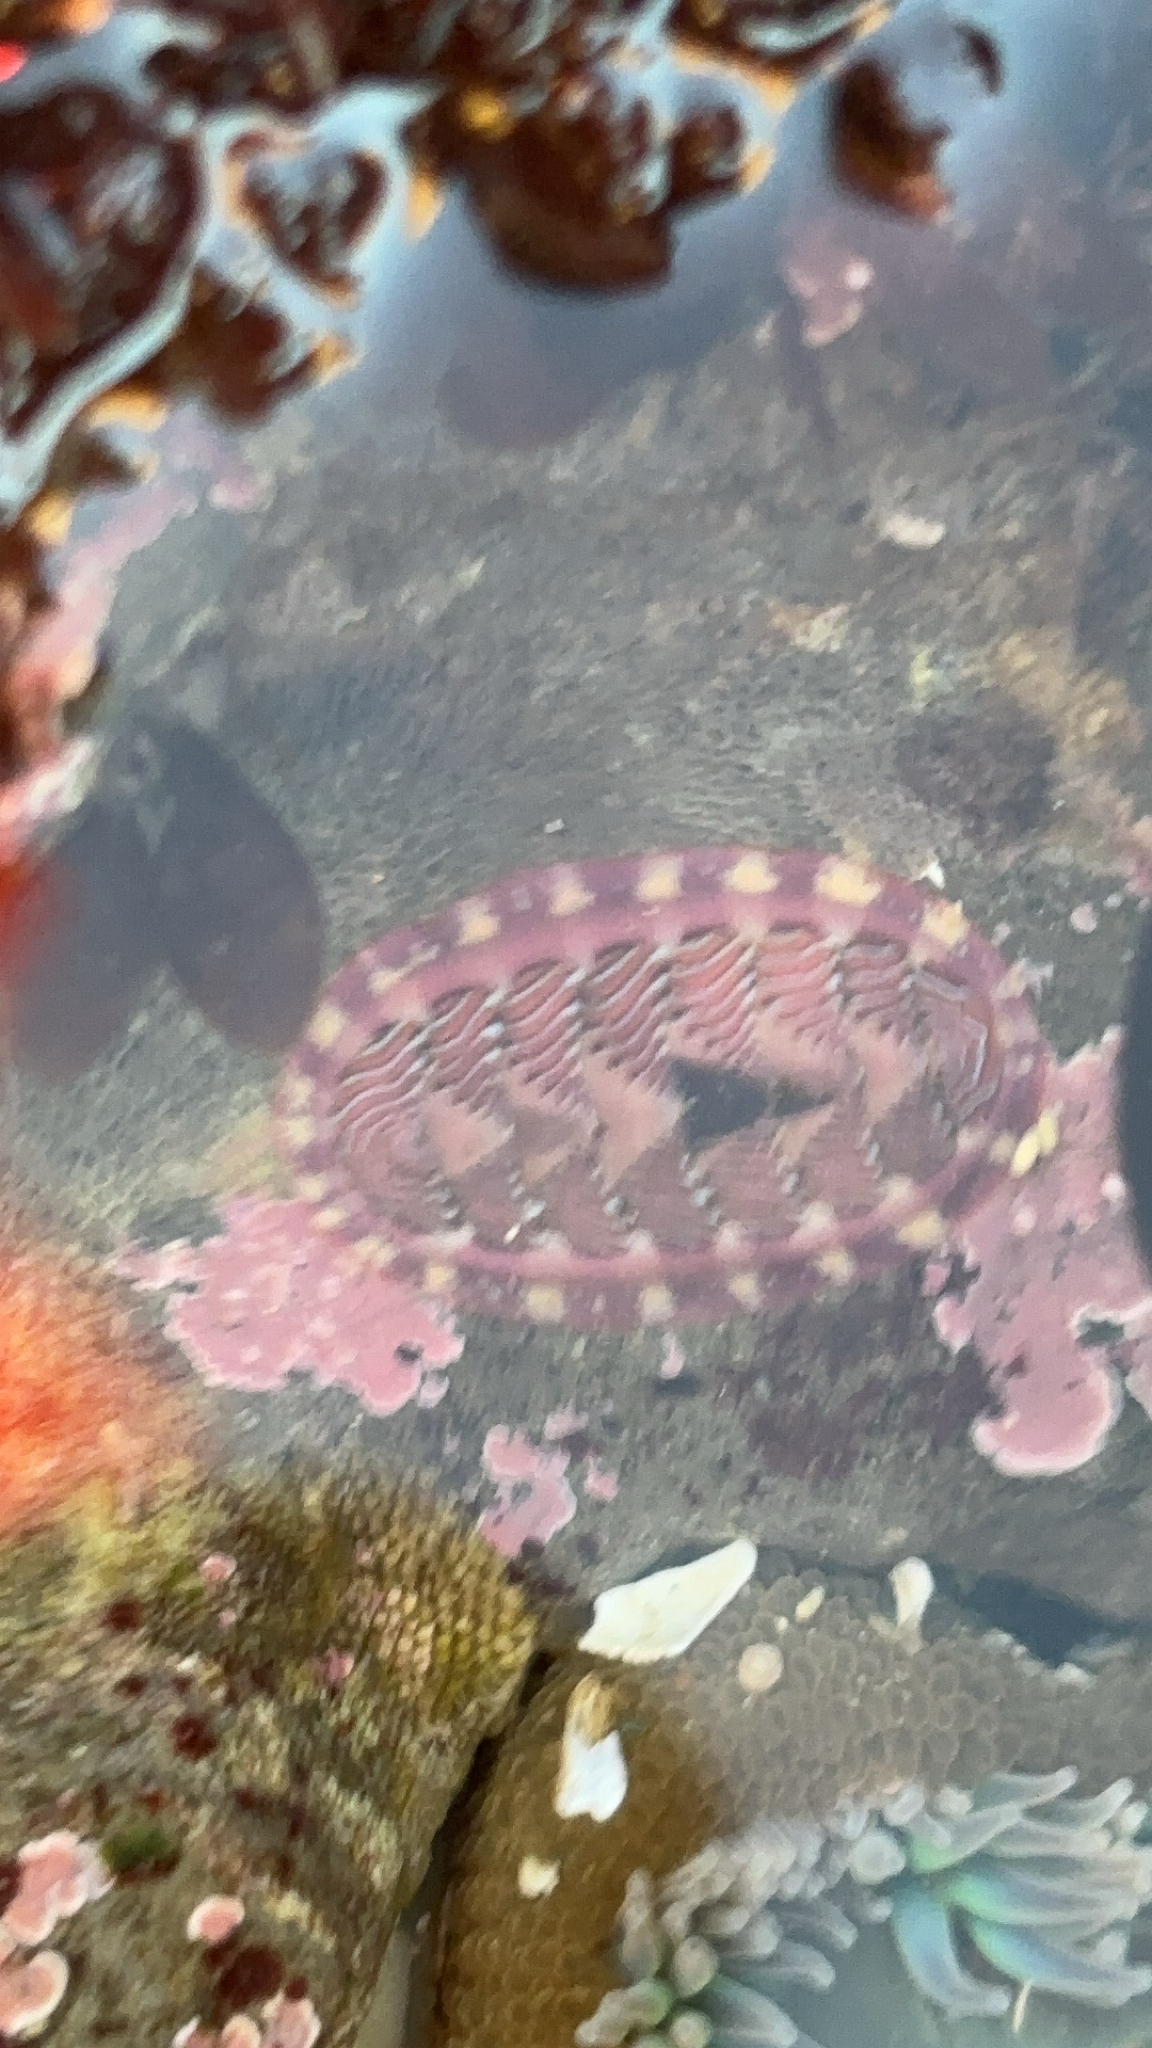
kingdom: Animalia
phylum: Mollusca
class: Polyplacophora
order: Chitonida
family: Tonicellidae
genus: Tonicella
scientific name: Tonicella lineata
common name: Lined chiton
